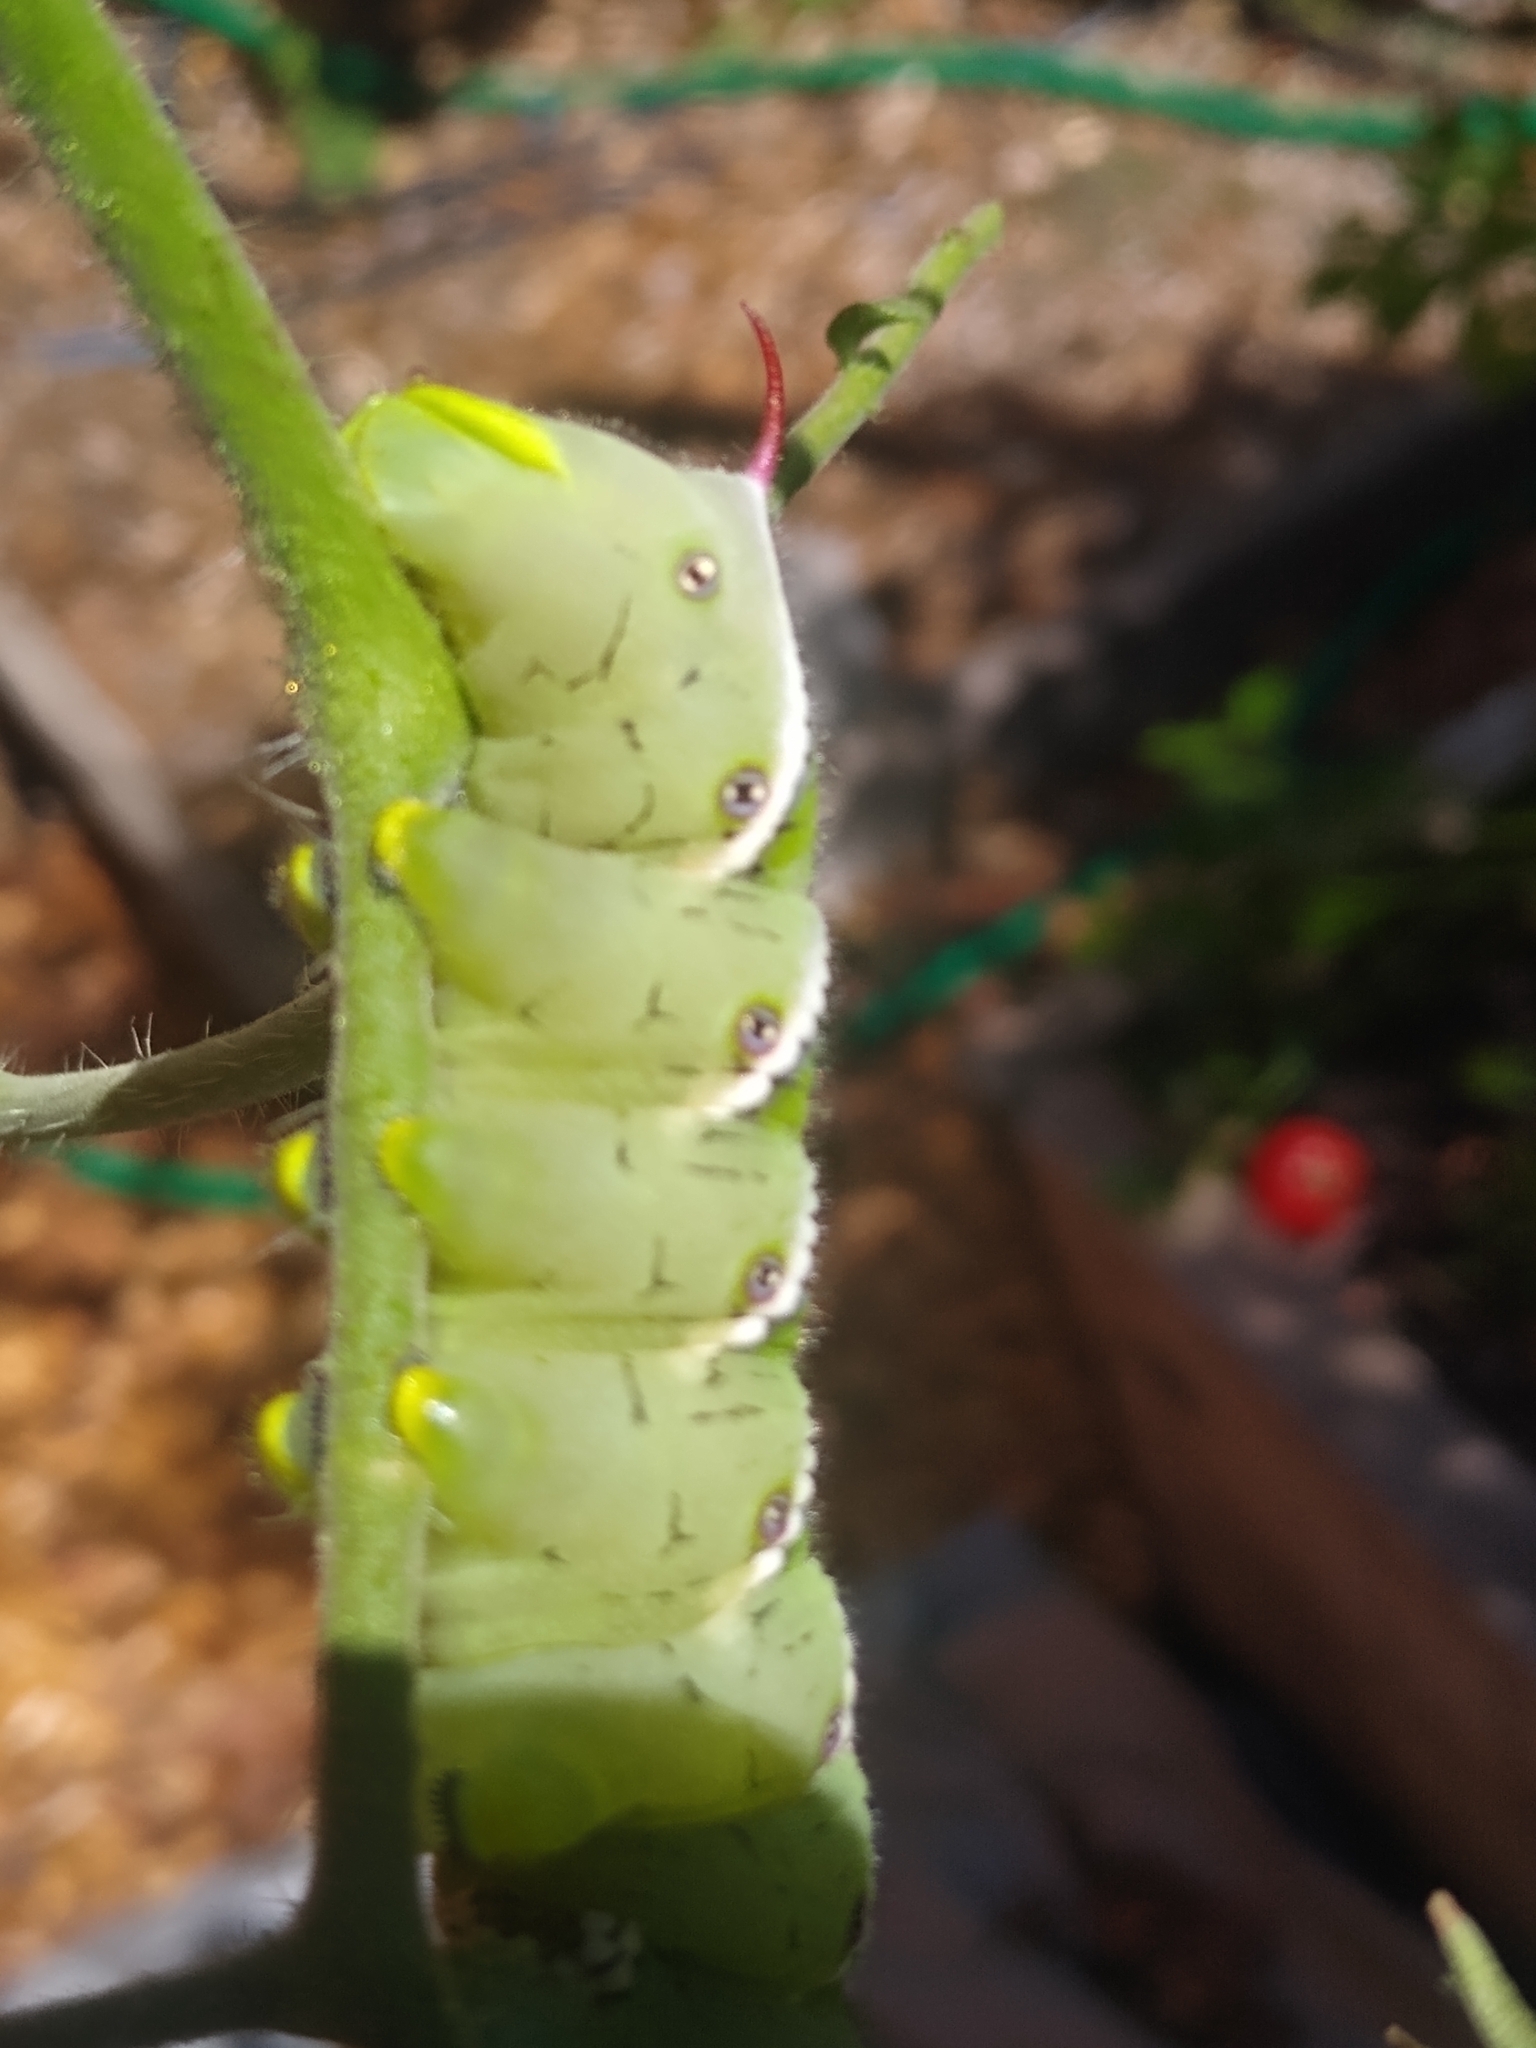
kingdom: Animalia
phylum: Arthropoda
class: Insecta
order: Lepidoptera
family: Sphingidae
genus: Manduca
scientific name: Manduca sexta
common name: Carolina sphinx
